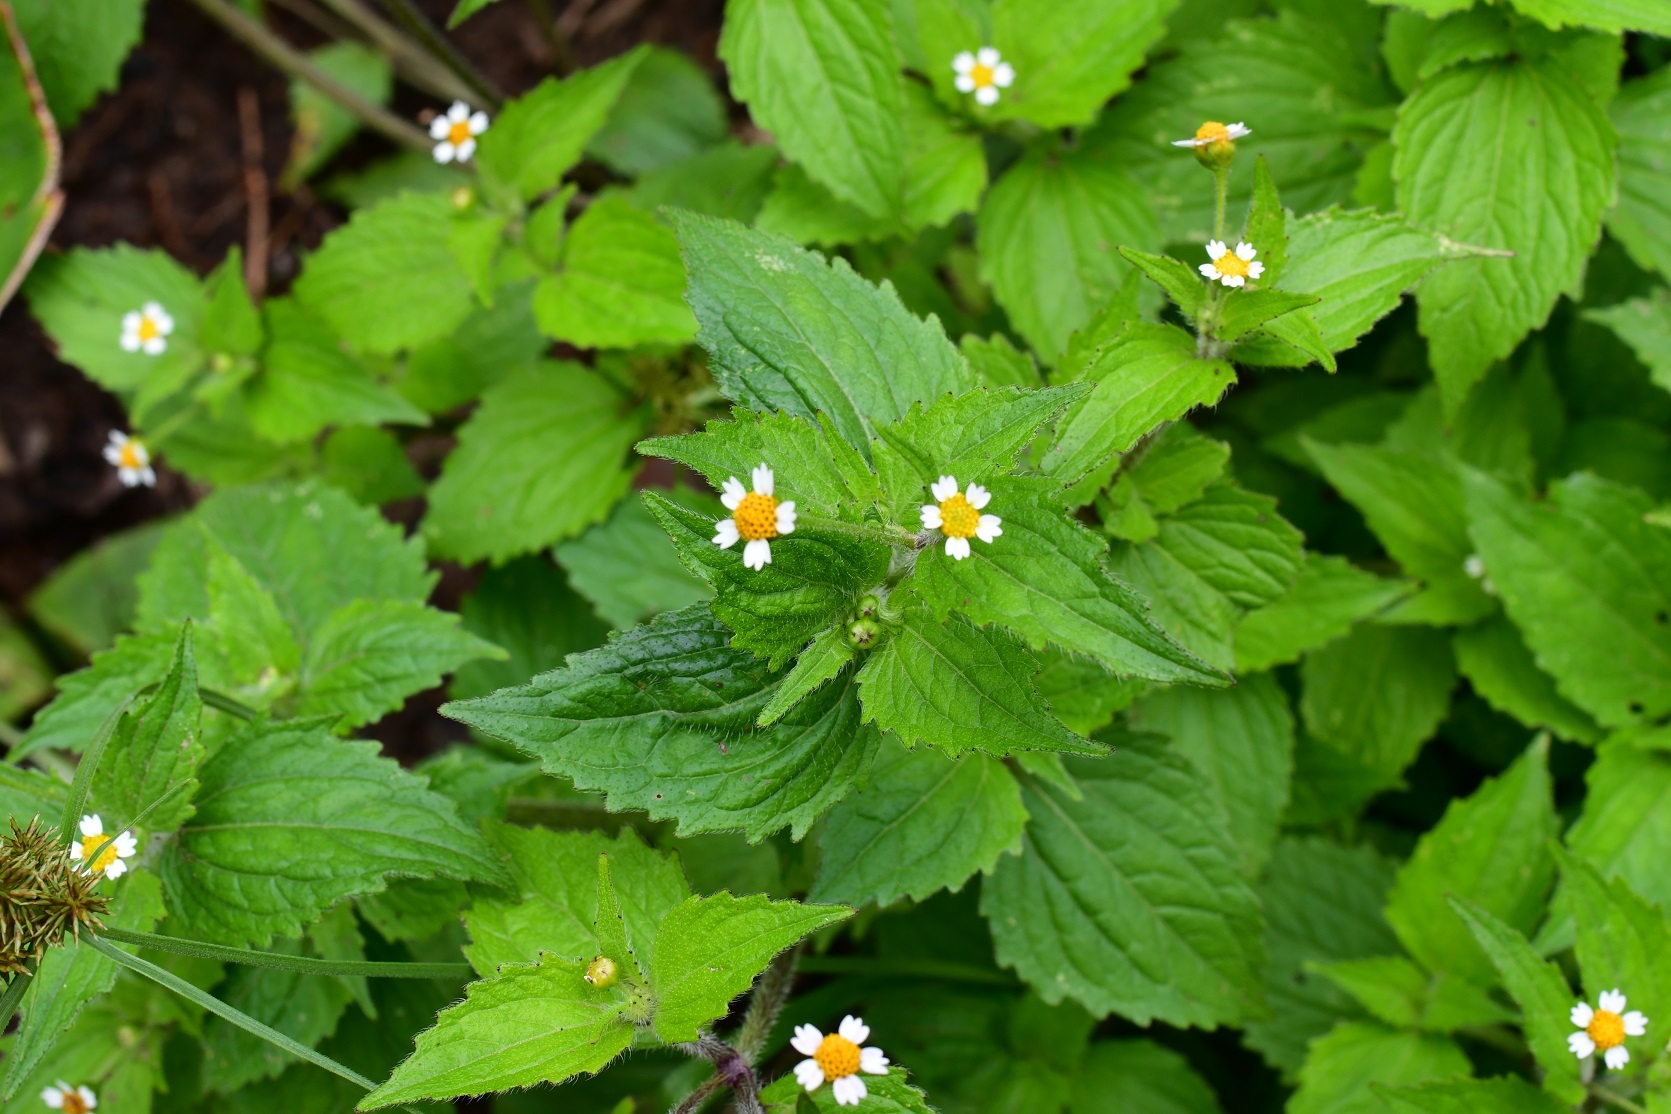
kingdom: Plantae
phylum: Tracheophyta
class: Magnoliopsida
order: Asterales
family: Asteraceae
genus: Galinsoga
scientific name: Galinsoga quadriradiata
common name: Shaggy soldier
